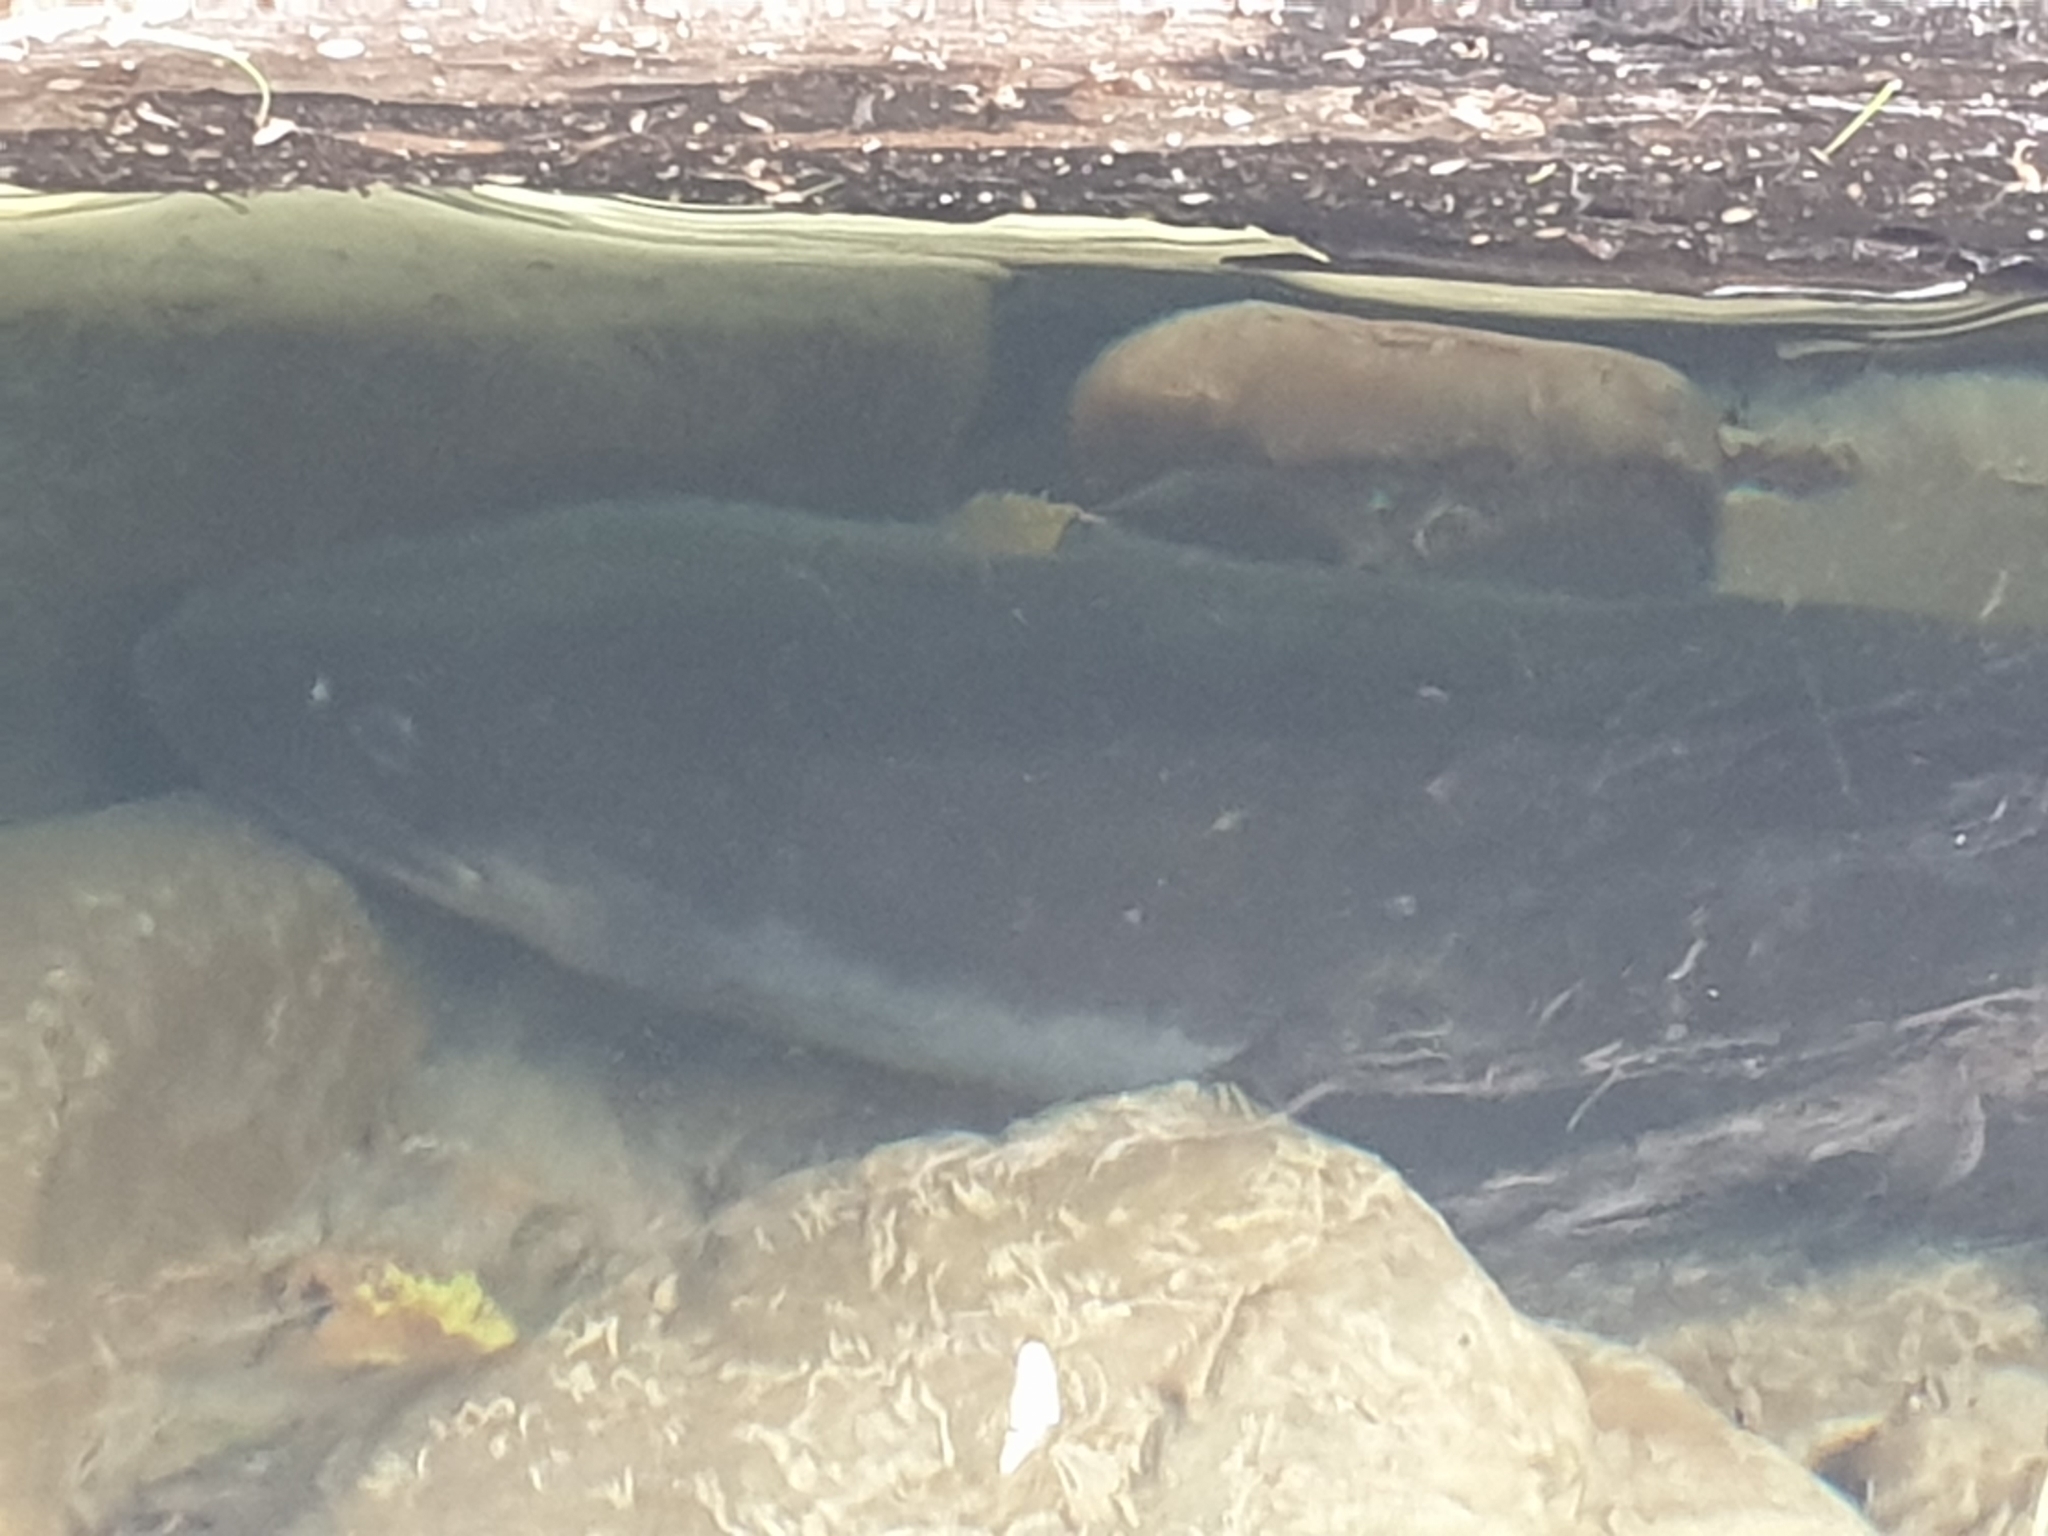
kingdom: Animalia
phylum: Chordata
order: Anguilliformes
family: Anguillidae
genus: Anguilla
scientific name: Anguilla dieffenbachii
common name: New zealand longfin eel
